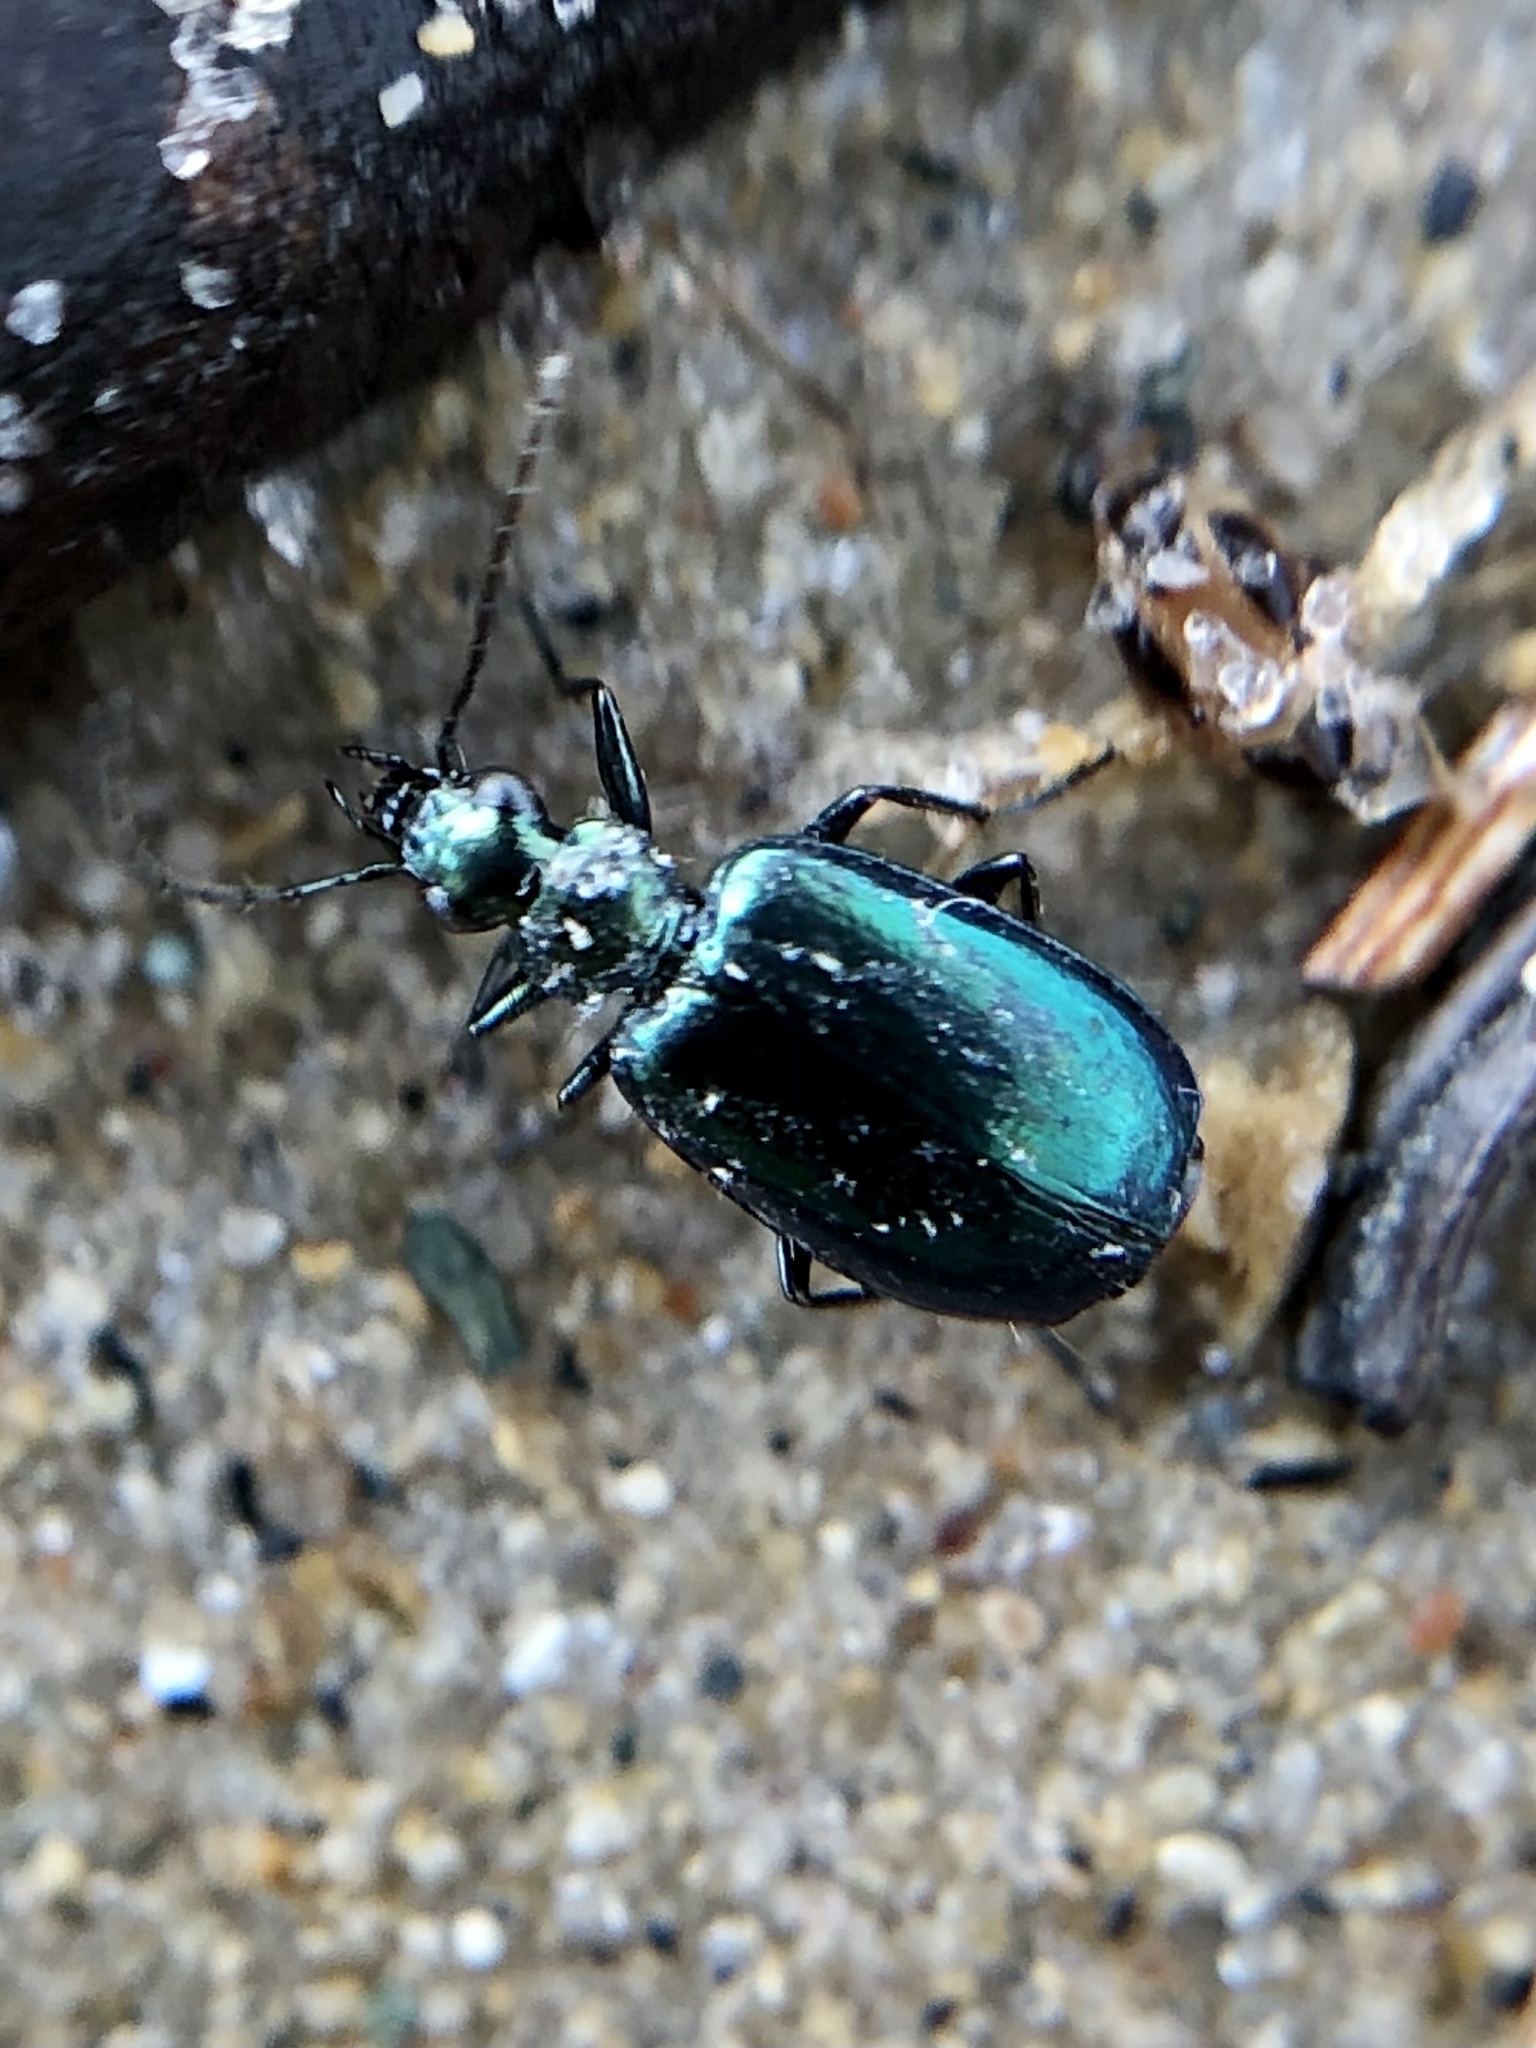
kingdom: Animalia
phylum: Arthropoda
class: Insecta
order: Coleoptera
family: Carabidae
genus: Lebia
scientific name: Lebia viridis
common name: Flower lebia beetle
